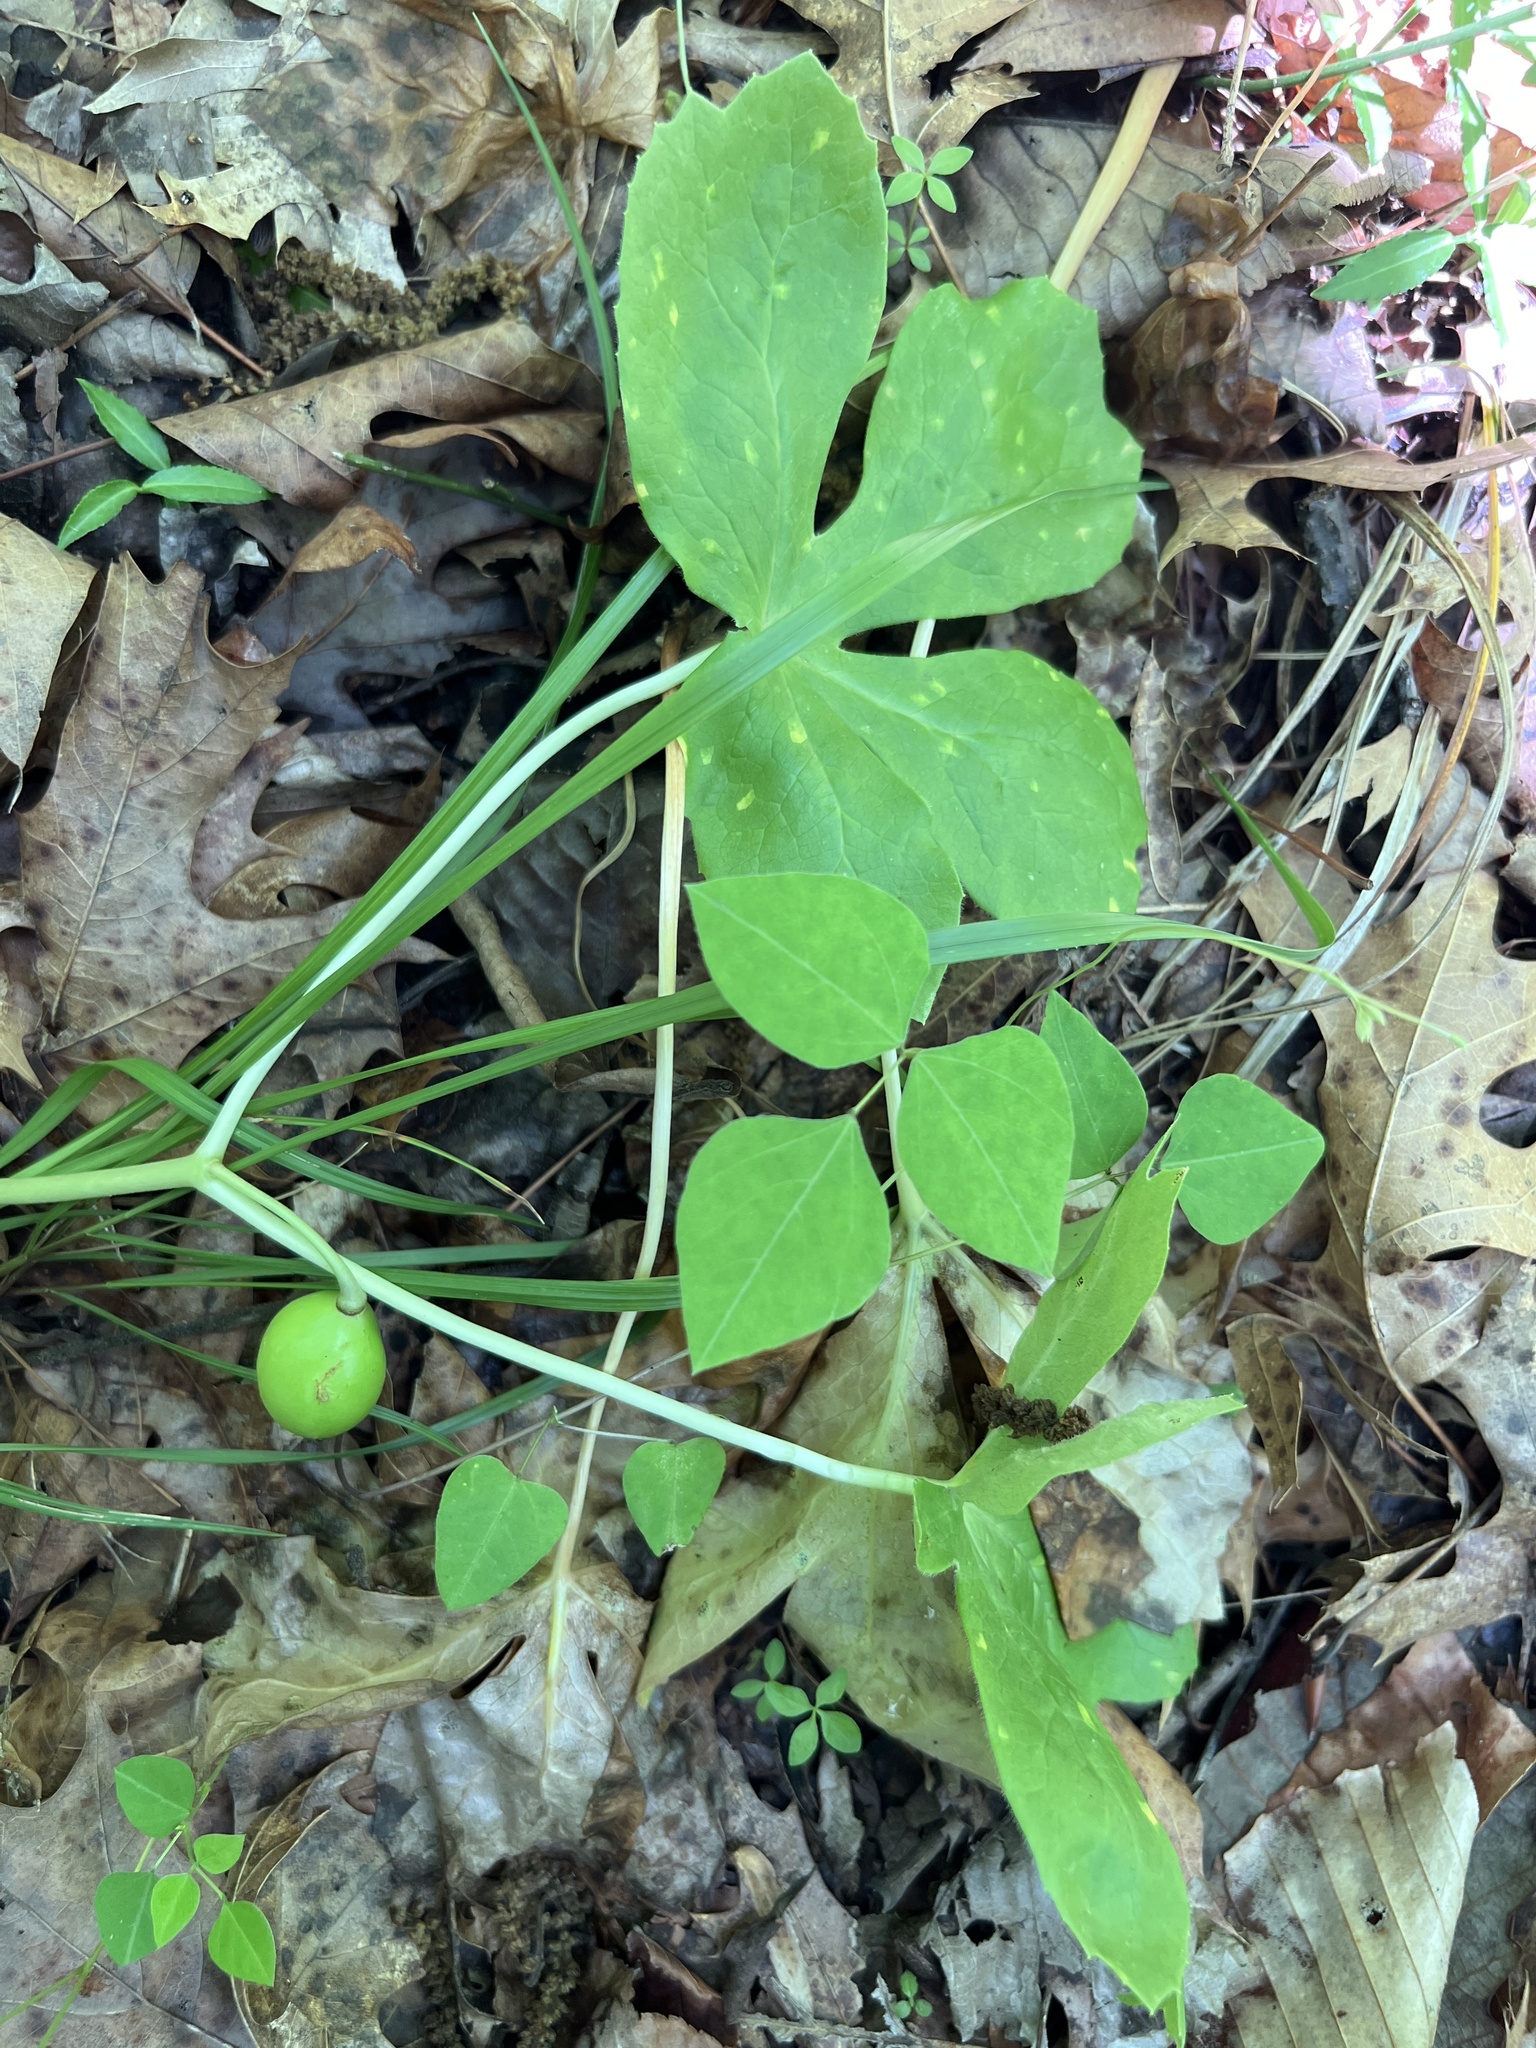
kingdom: Plantae
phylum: Tracheophyta
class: Magnoliopsida
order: Ranunculales
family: Berberidaceae
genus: Podophyllum
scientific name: Podophyllum peltatum
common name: Wild mandrake
